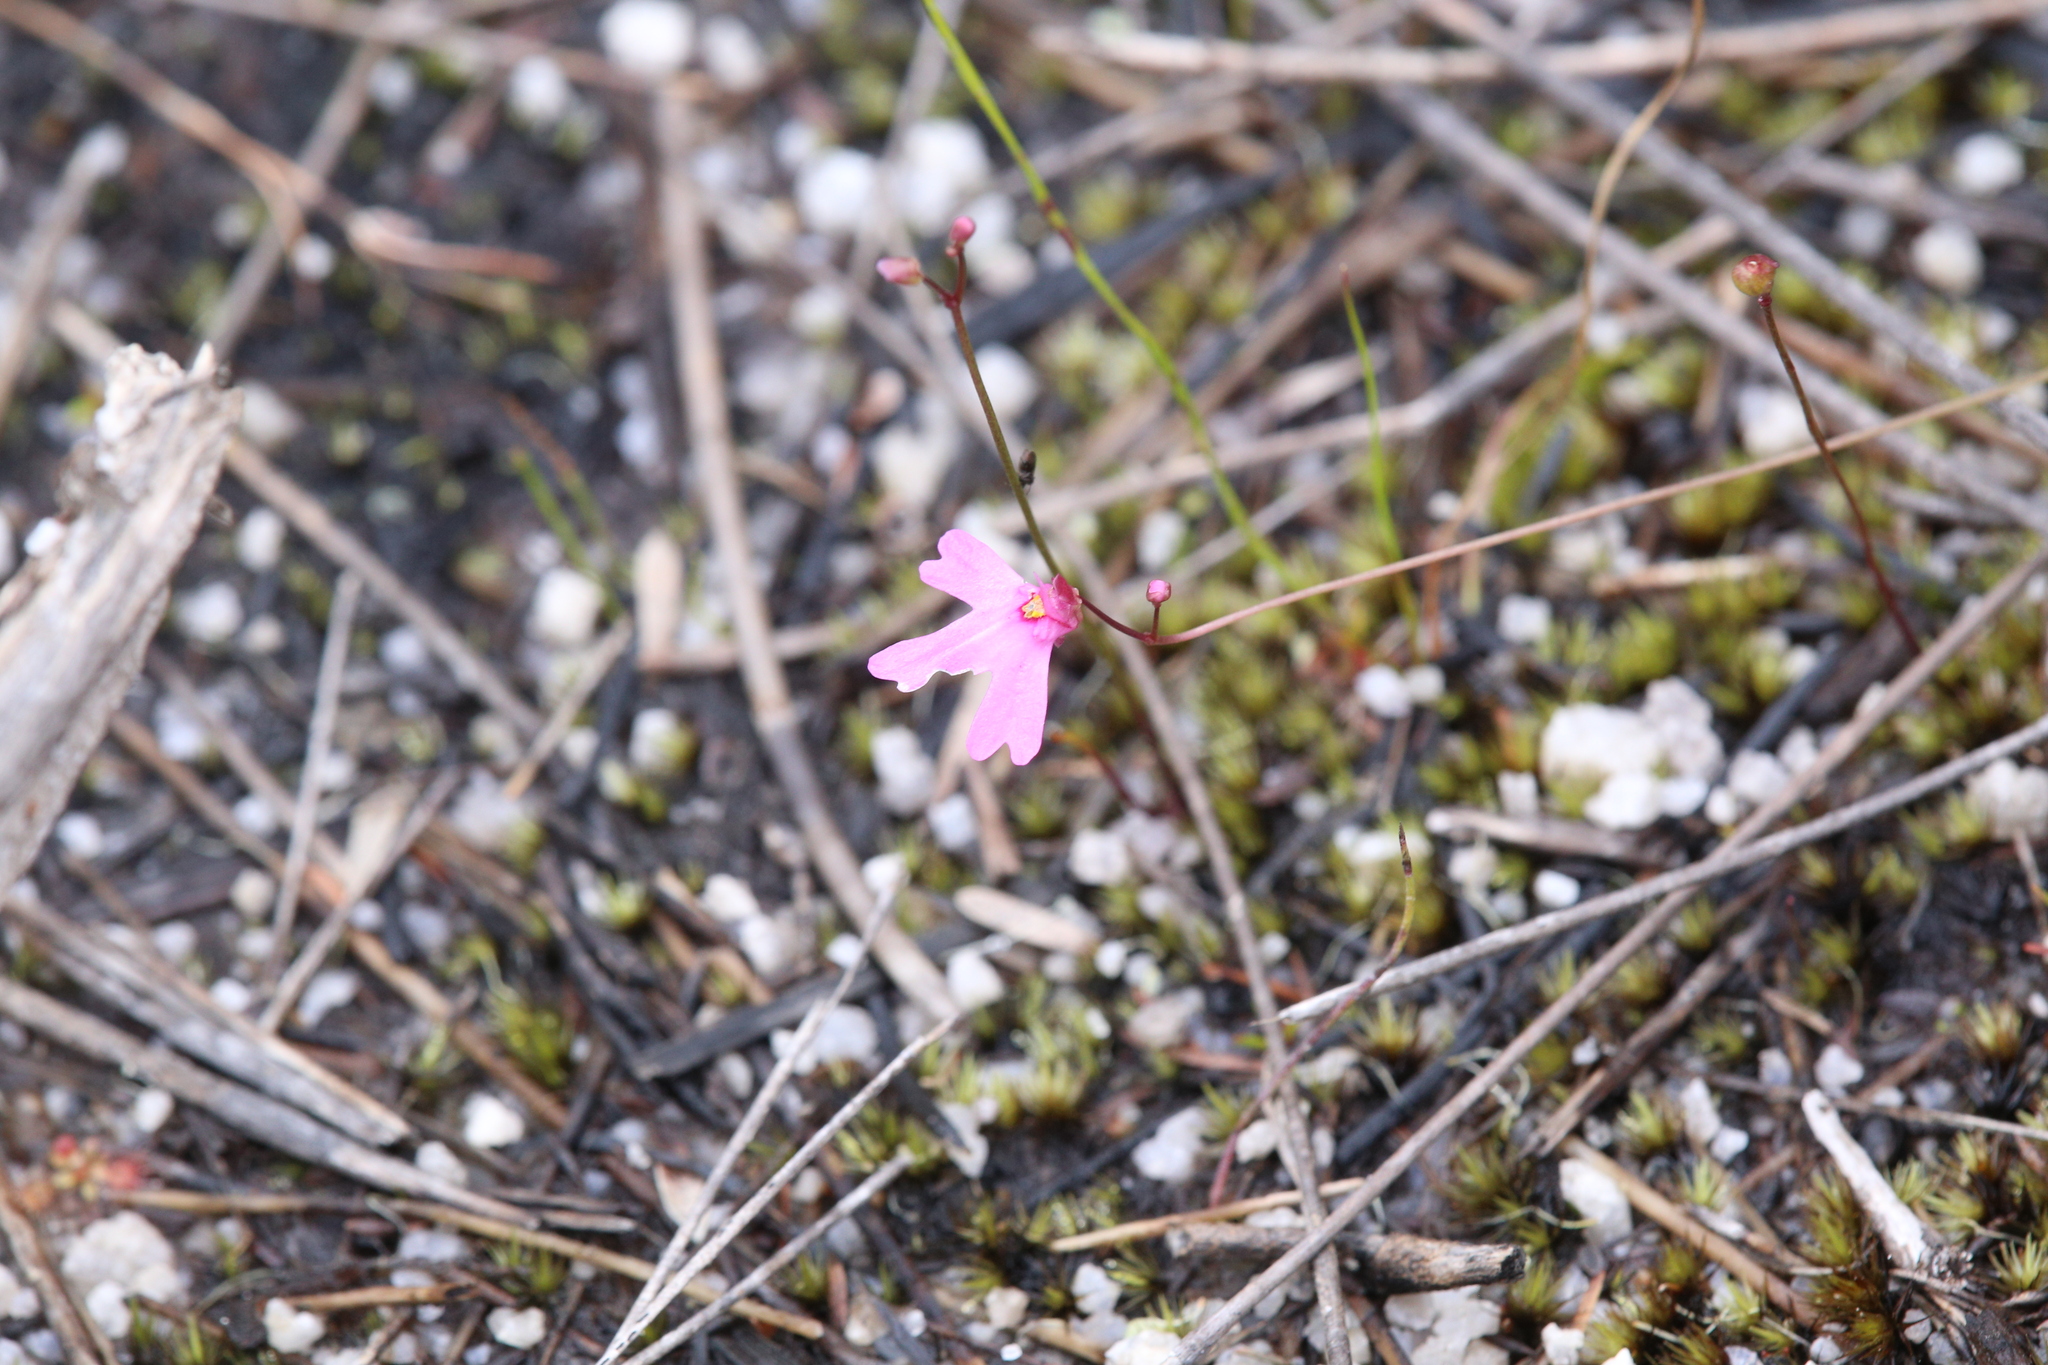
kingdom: Plantae
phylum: Tracheophyta
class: Magnoliopsida
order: Lamiales
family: Lentibulariaceae
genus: Utricularia
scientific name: Utricularia multifida
